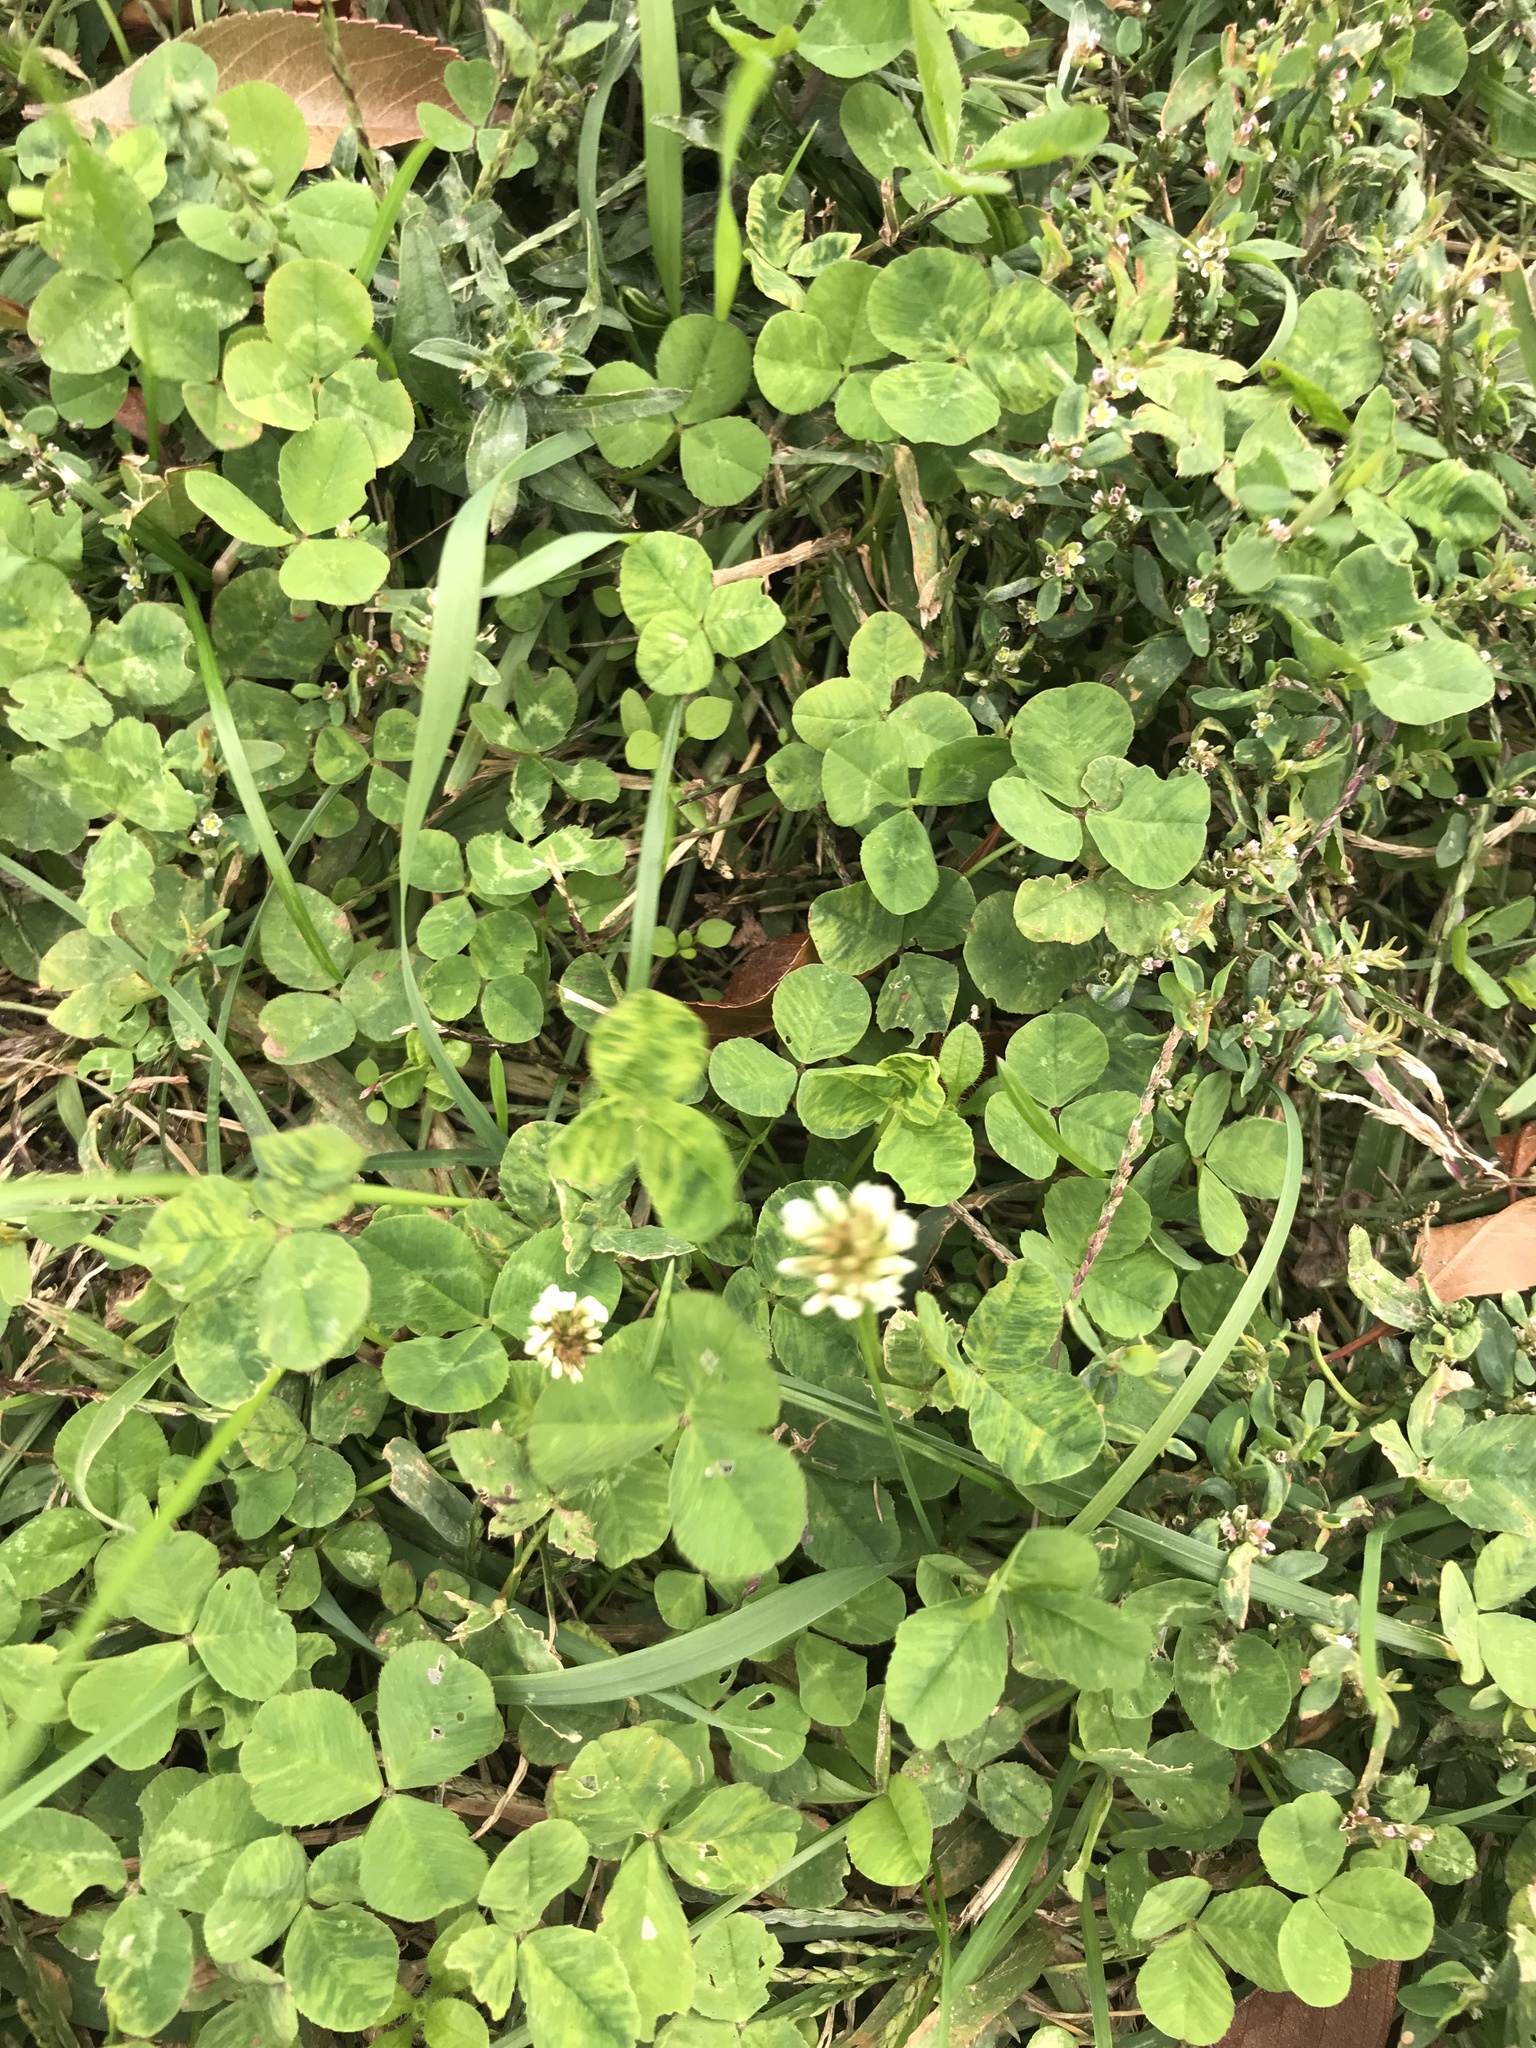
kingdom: Plantae
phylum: Tracheophyta
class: Magnoliopsida
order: Fabales
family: Fabaceae
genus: Trifolium
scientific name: Trifolium repens
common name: White clover
